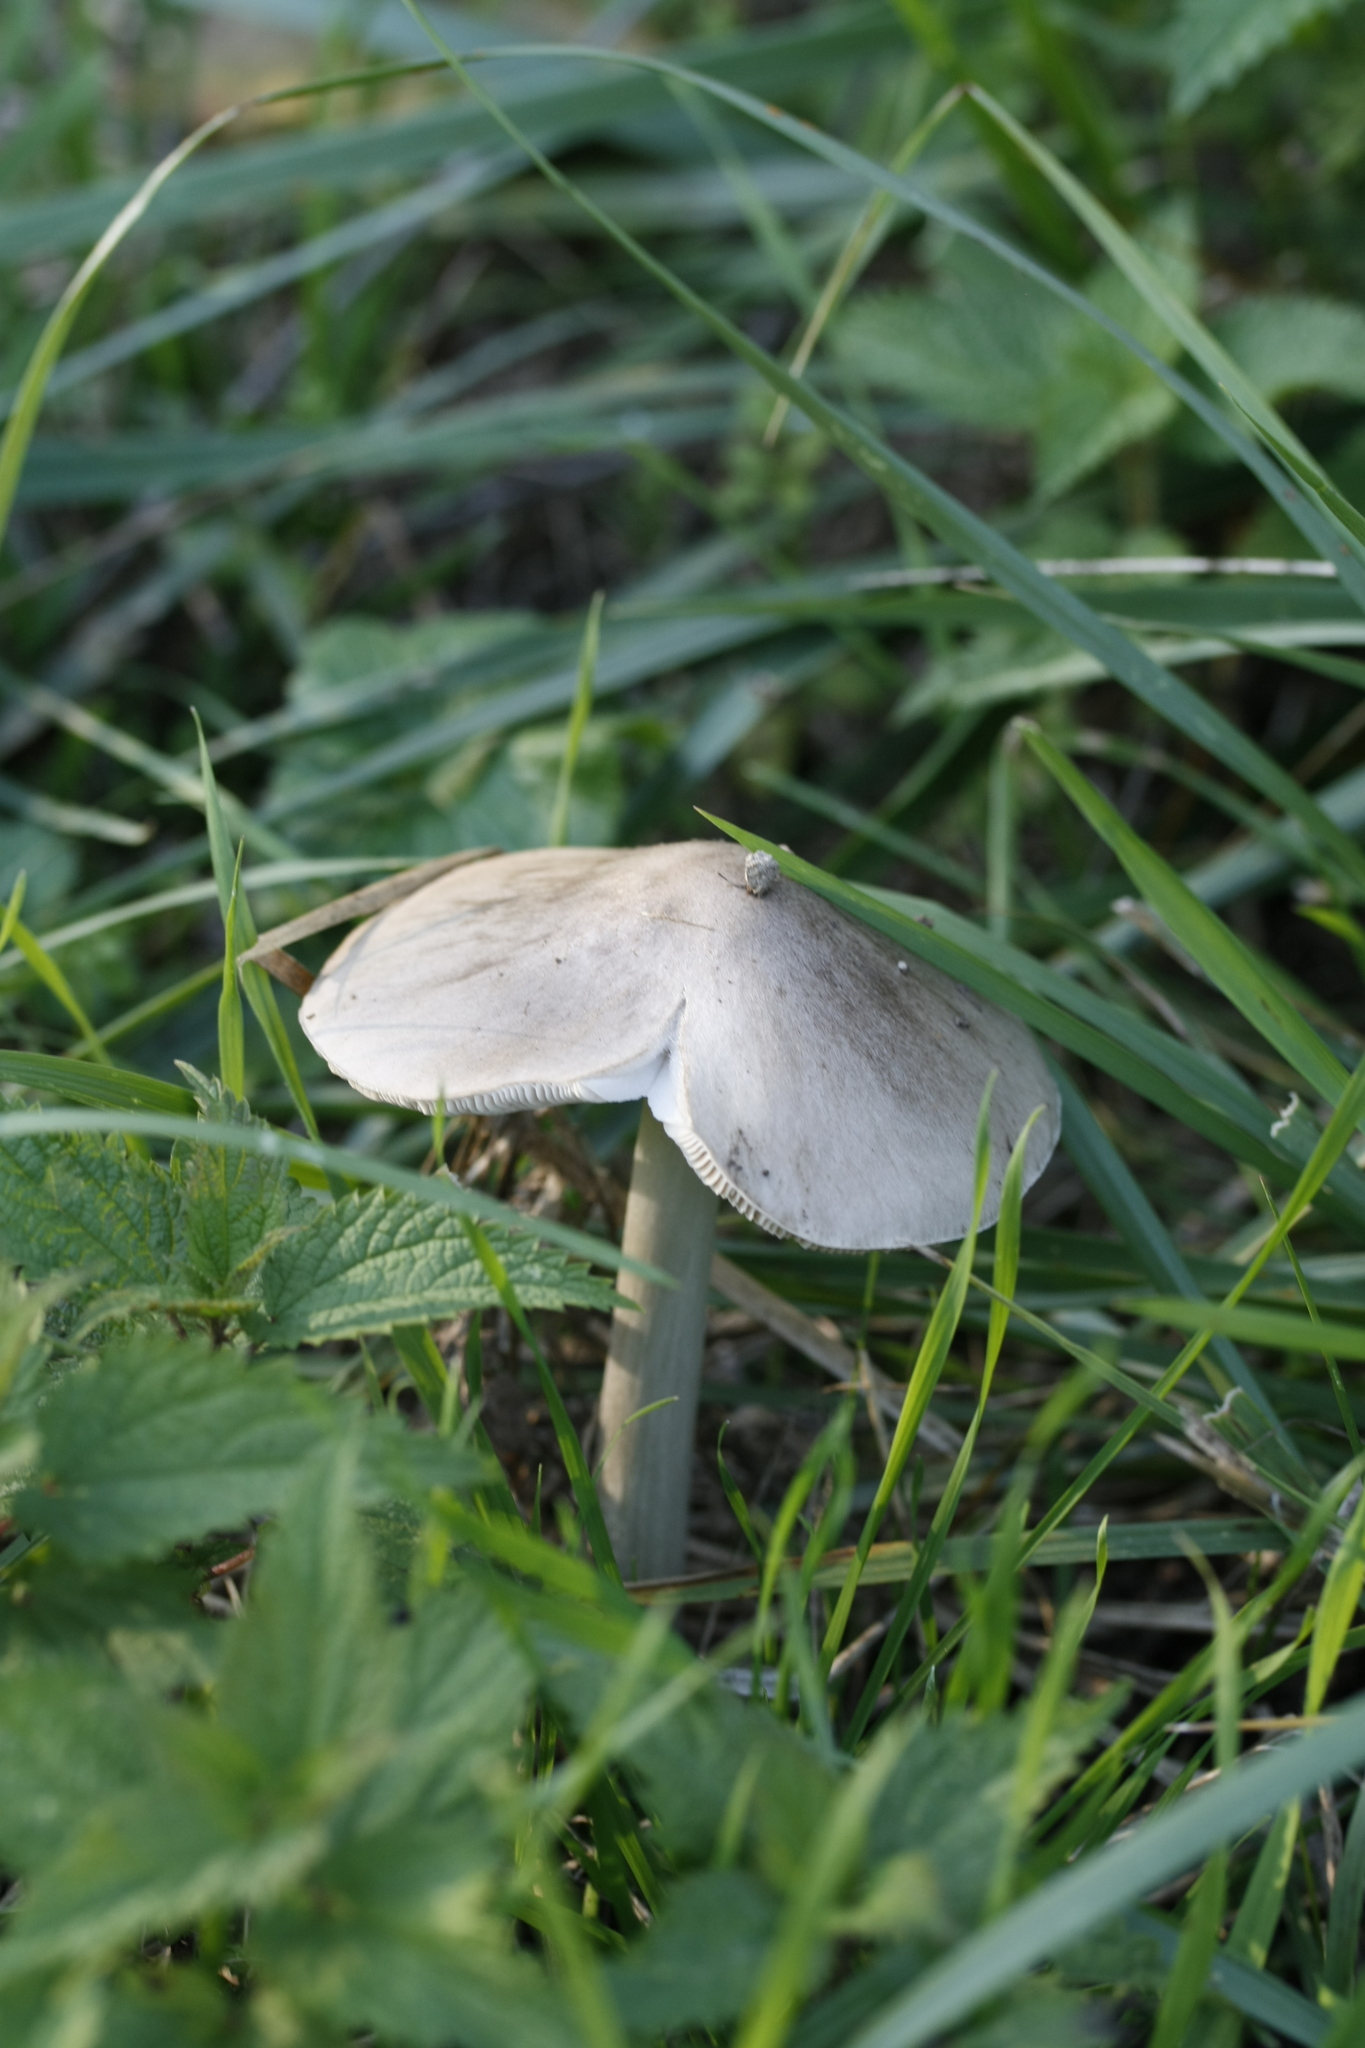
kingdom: Fungi
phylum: Basidiomycota
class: Agaricomycetes
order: Agaricales
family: Pluteaceae
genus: Volvopluteus
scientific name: Volvopluteus gloiocephalus
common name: Stubble rosegill
